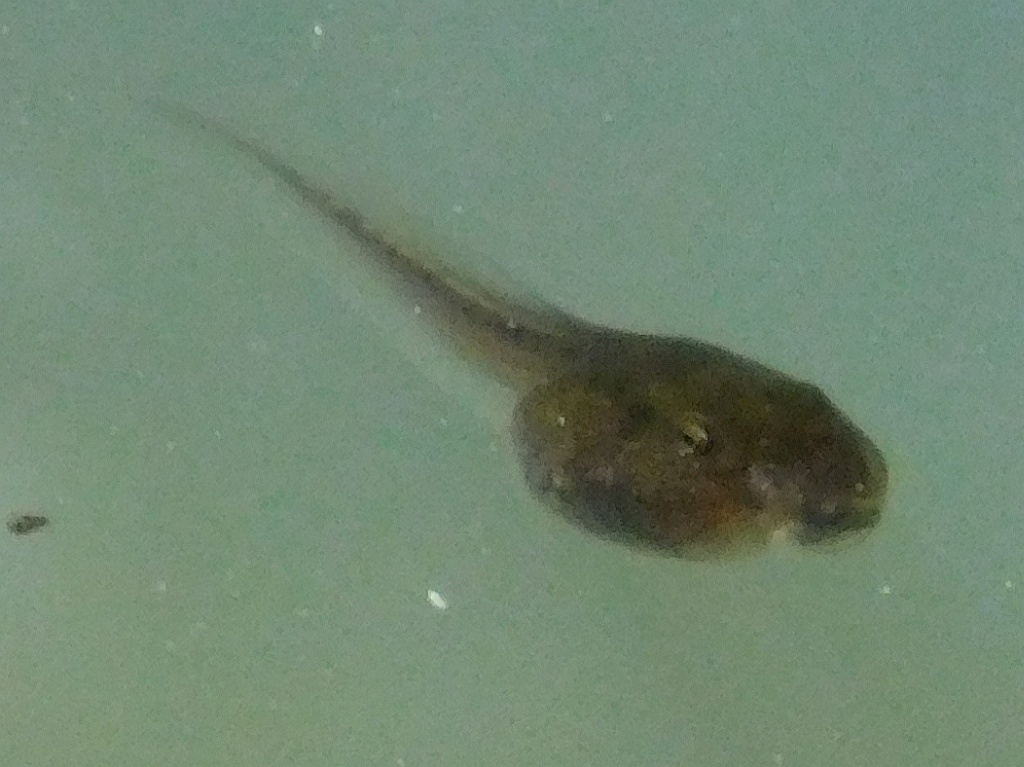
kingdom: Animalia
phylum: Chordata
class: Amphibia
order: Anura
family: Bufonidae
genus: Sclerophrys
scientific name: Sclerophrys capensis
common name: Ranger’s toad
